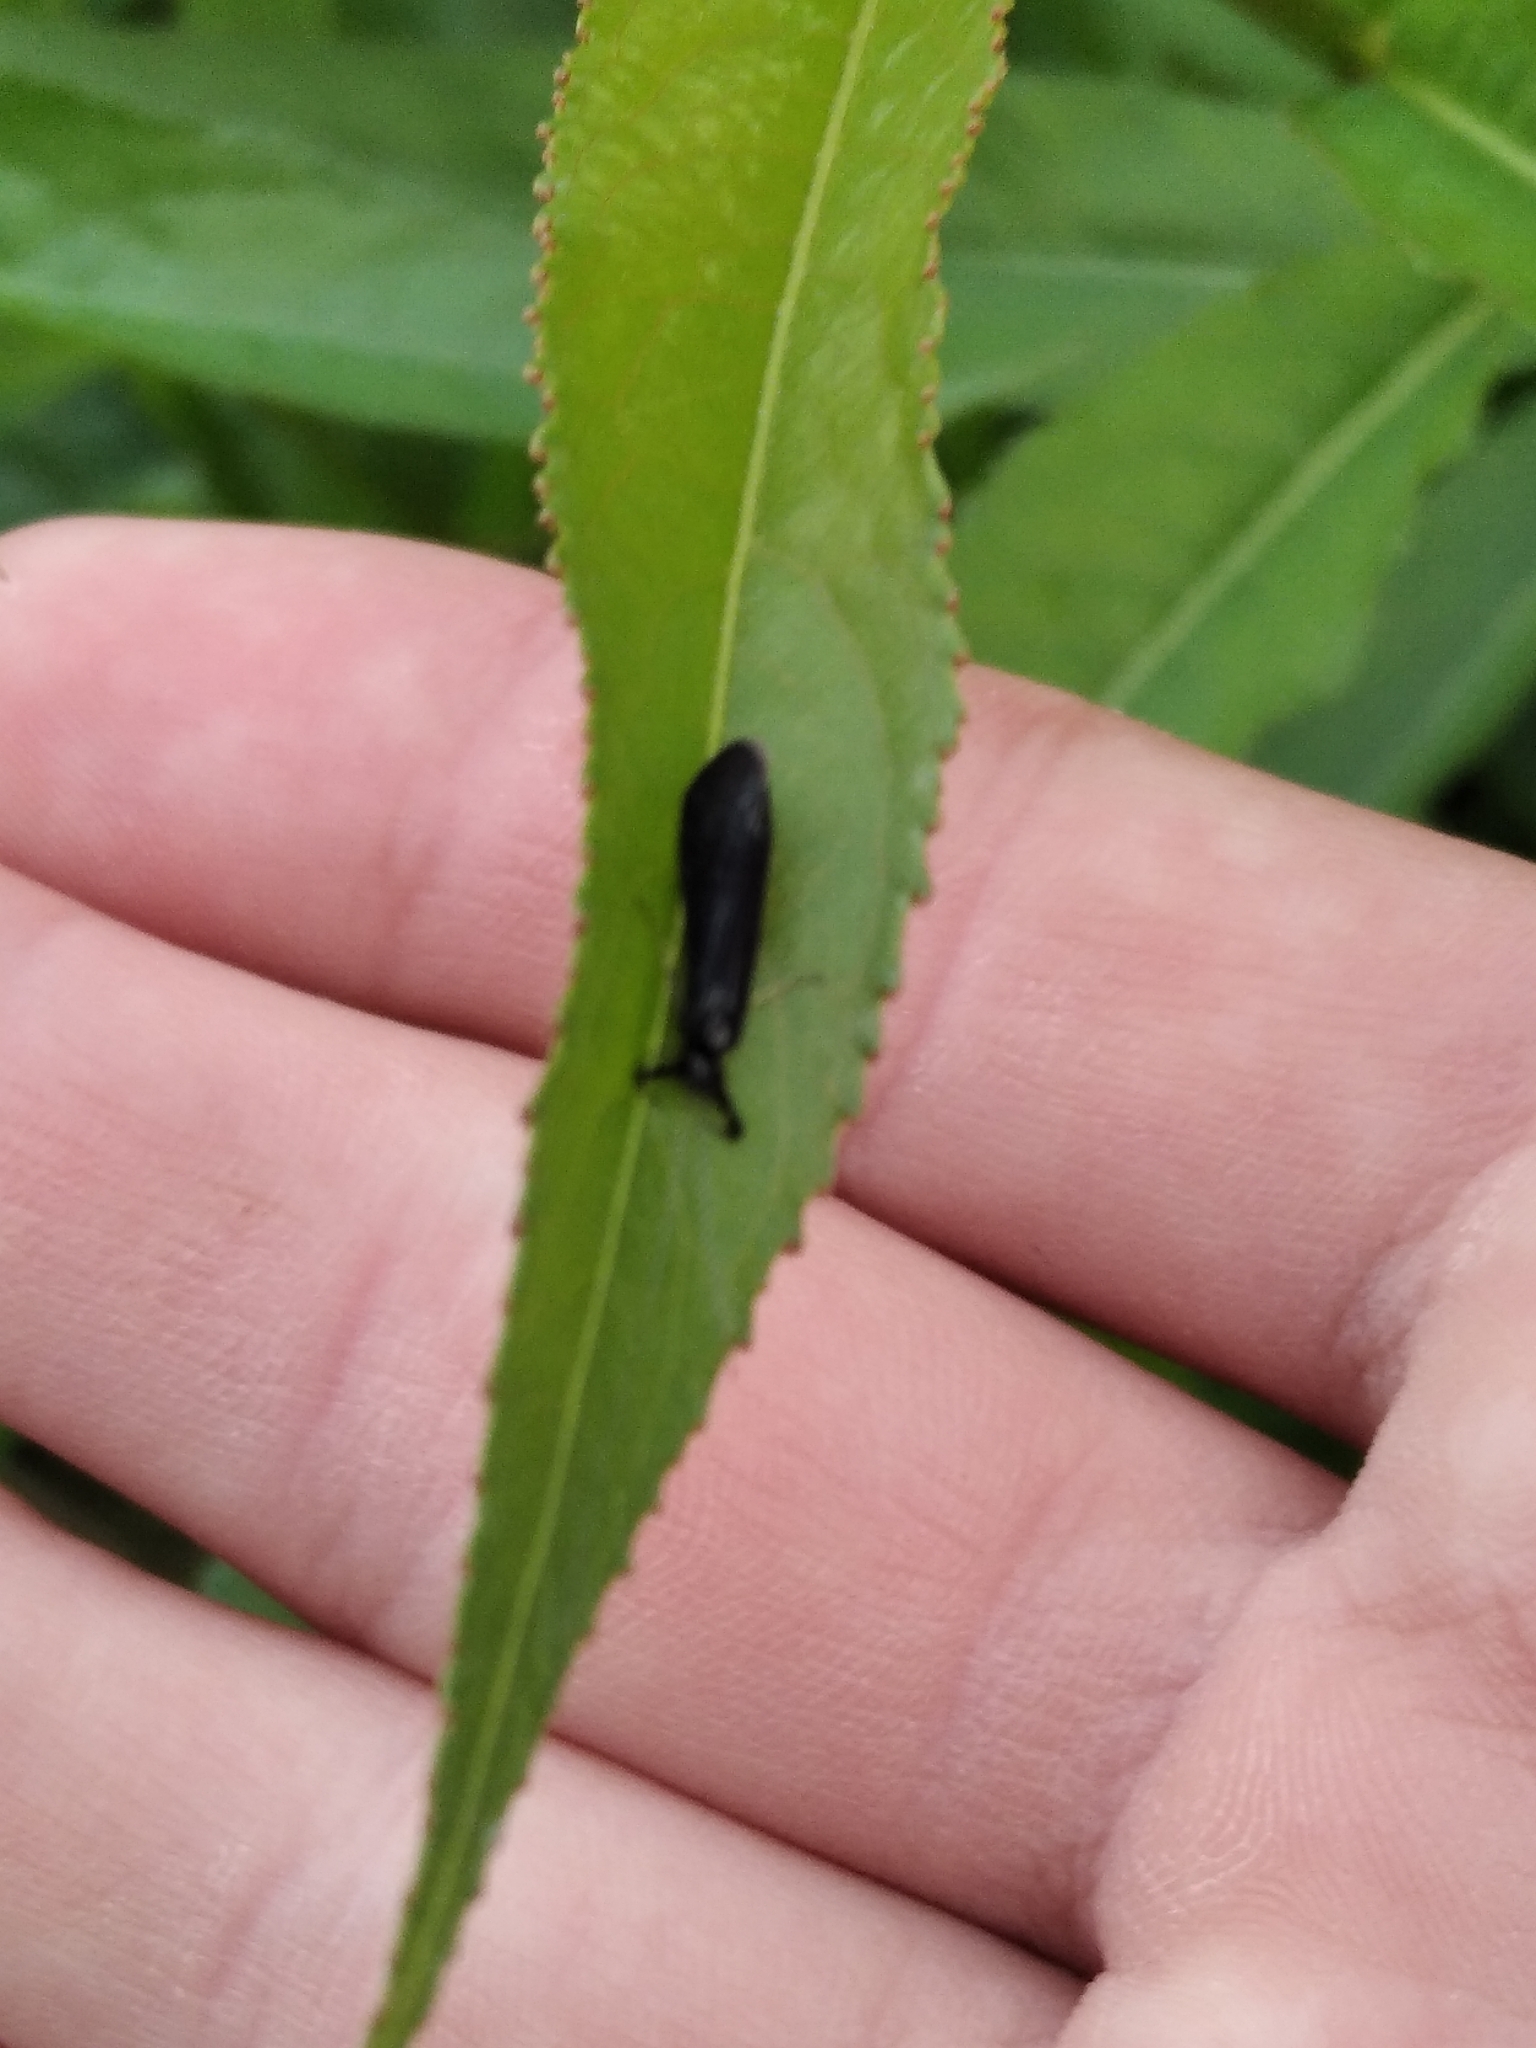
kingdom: Animalia
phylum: Arthropoda
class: Insecta
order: Trichoptera
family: Leptoceridae
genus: Mystacides
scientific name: Mystacides
